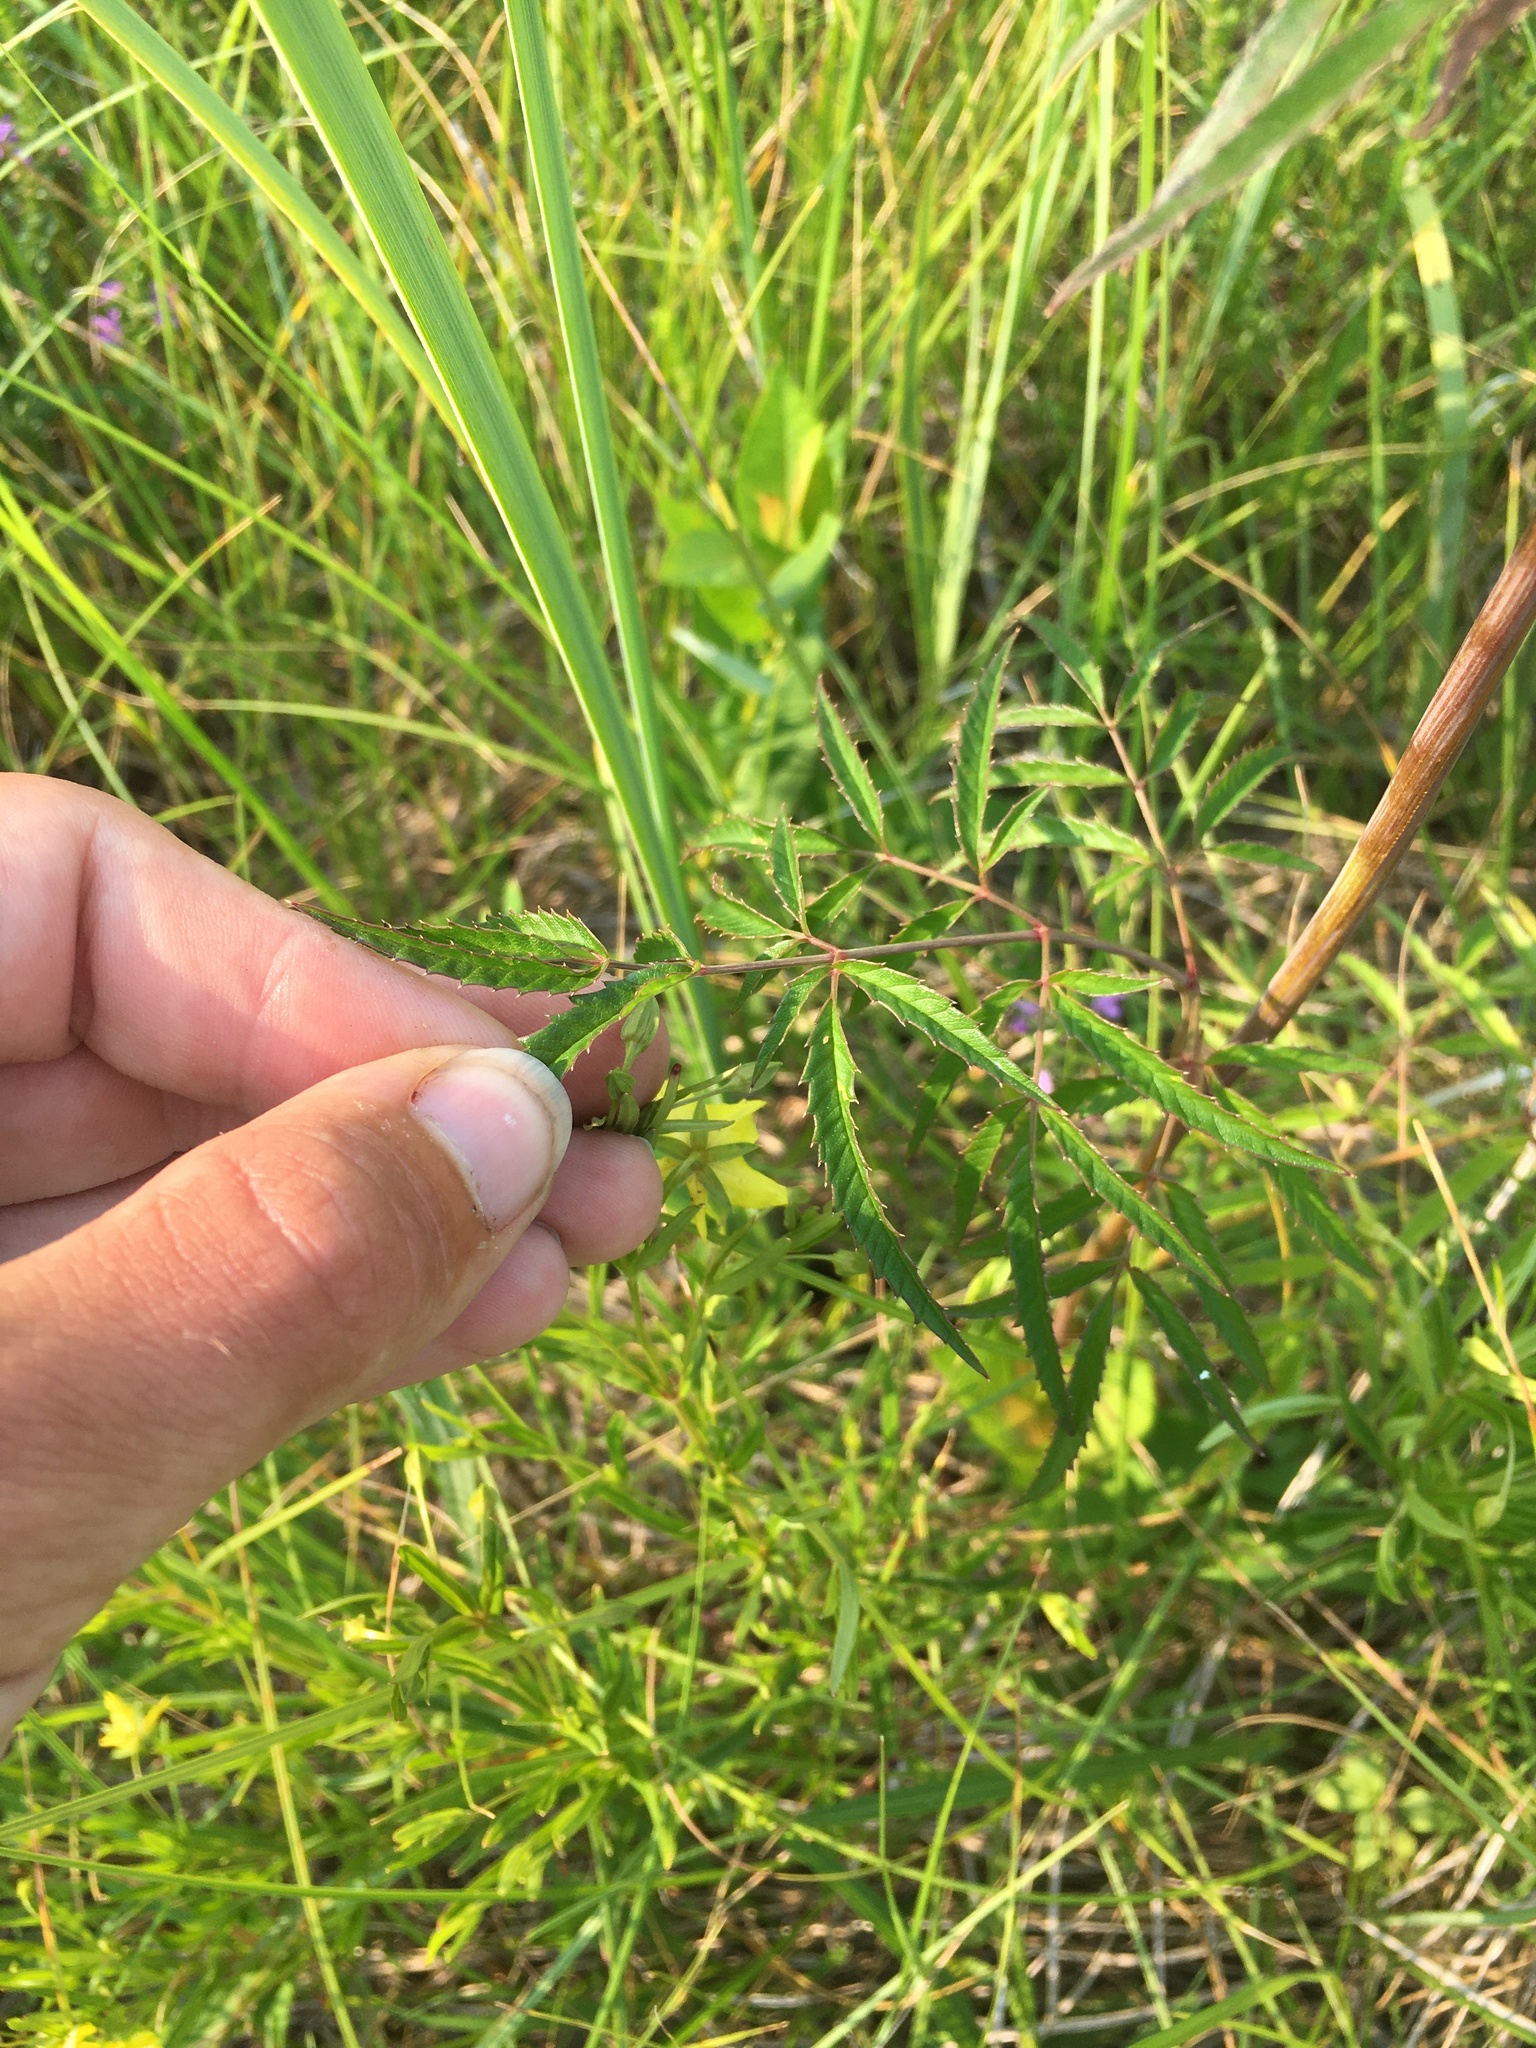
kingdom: Plantae
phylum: Tracheophyta
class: Magnoliopsida
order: Apiales
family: Apiaceae
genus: Cicuta
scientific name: Cicuta maculata
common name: Spotted cowbane
